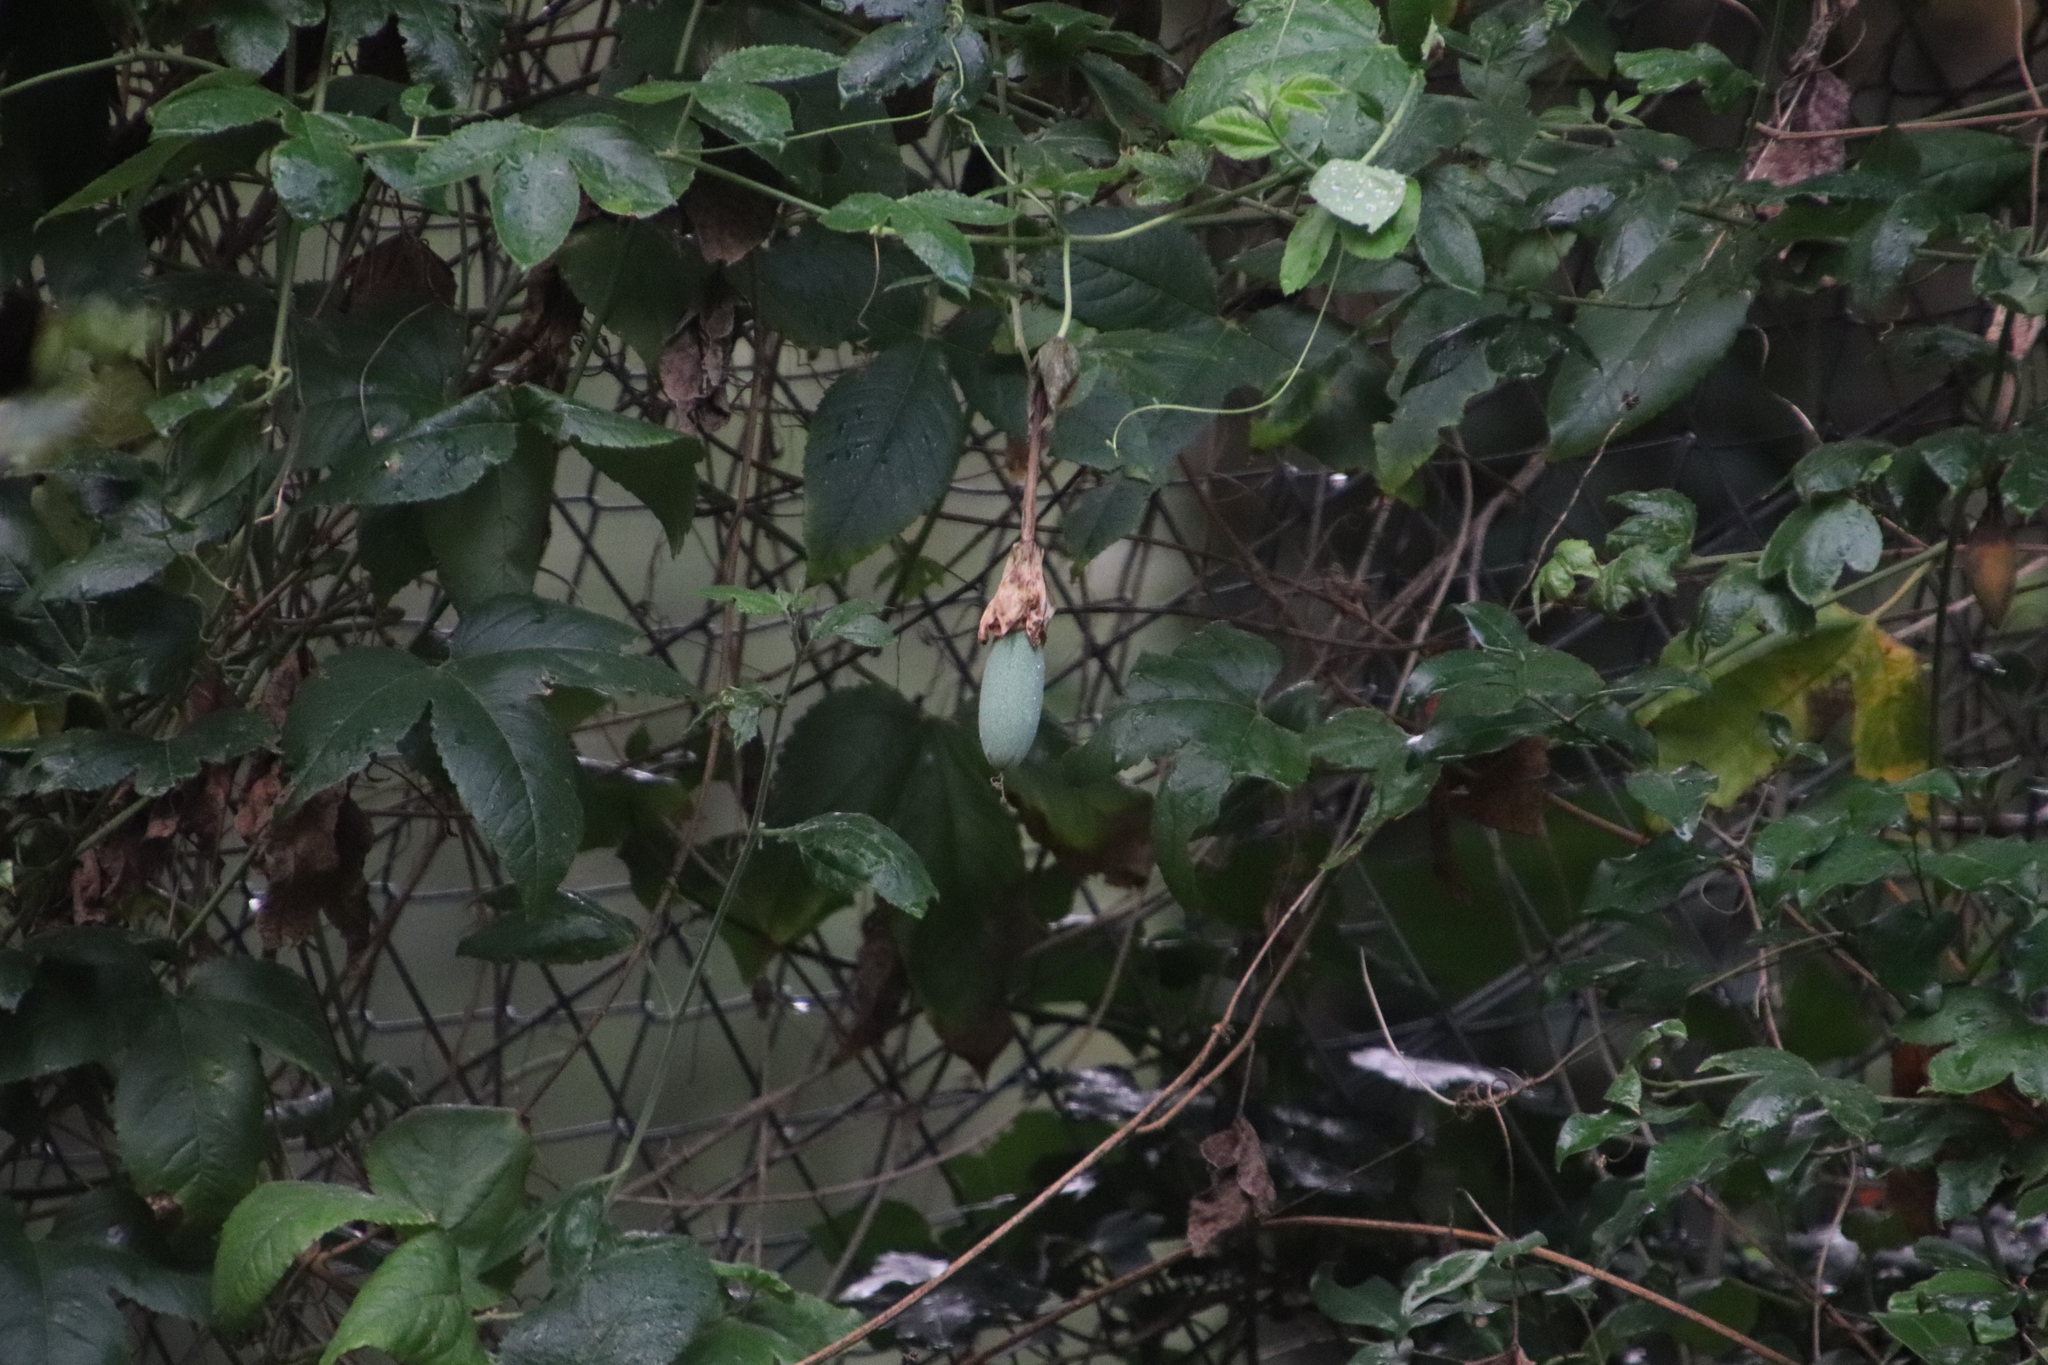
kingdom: Plantae
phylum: Tracheophyta
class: Magnoliopsida
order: Malpighiales
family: Passifloraceae
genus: Passiflora
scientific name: Passiflora tarminiana
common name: Banana poka
